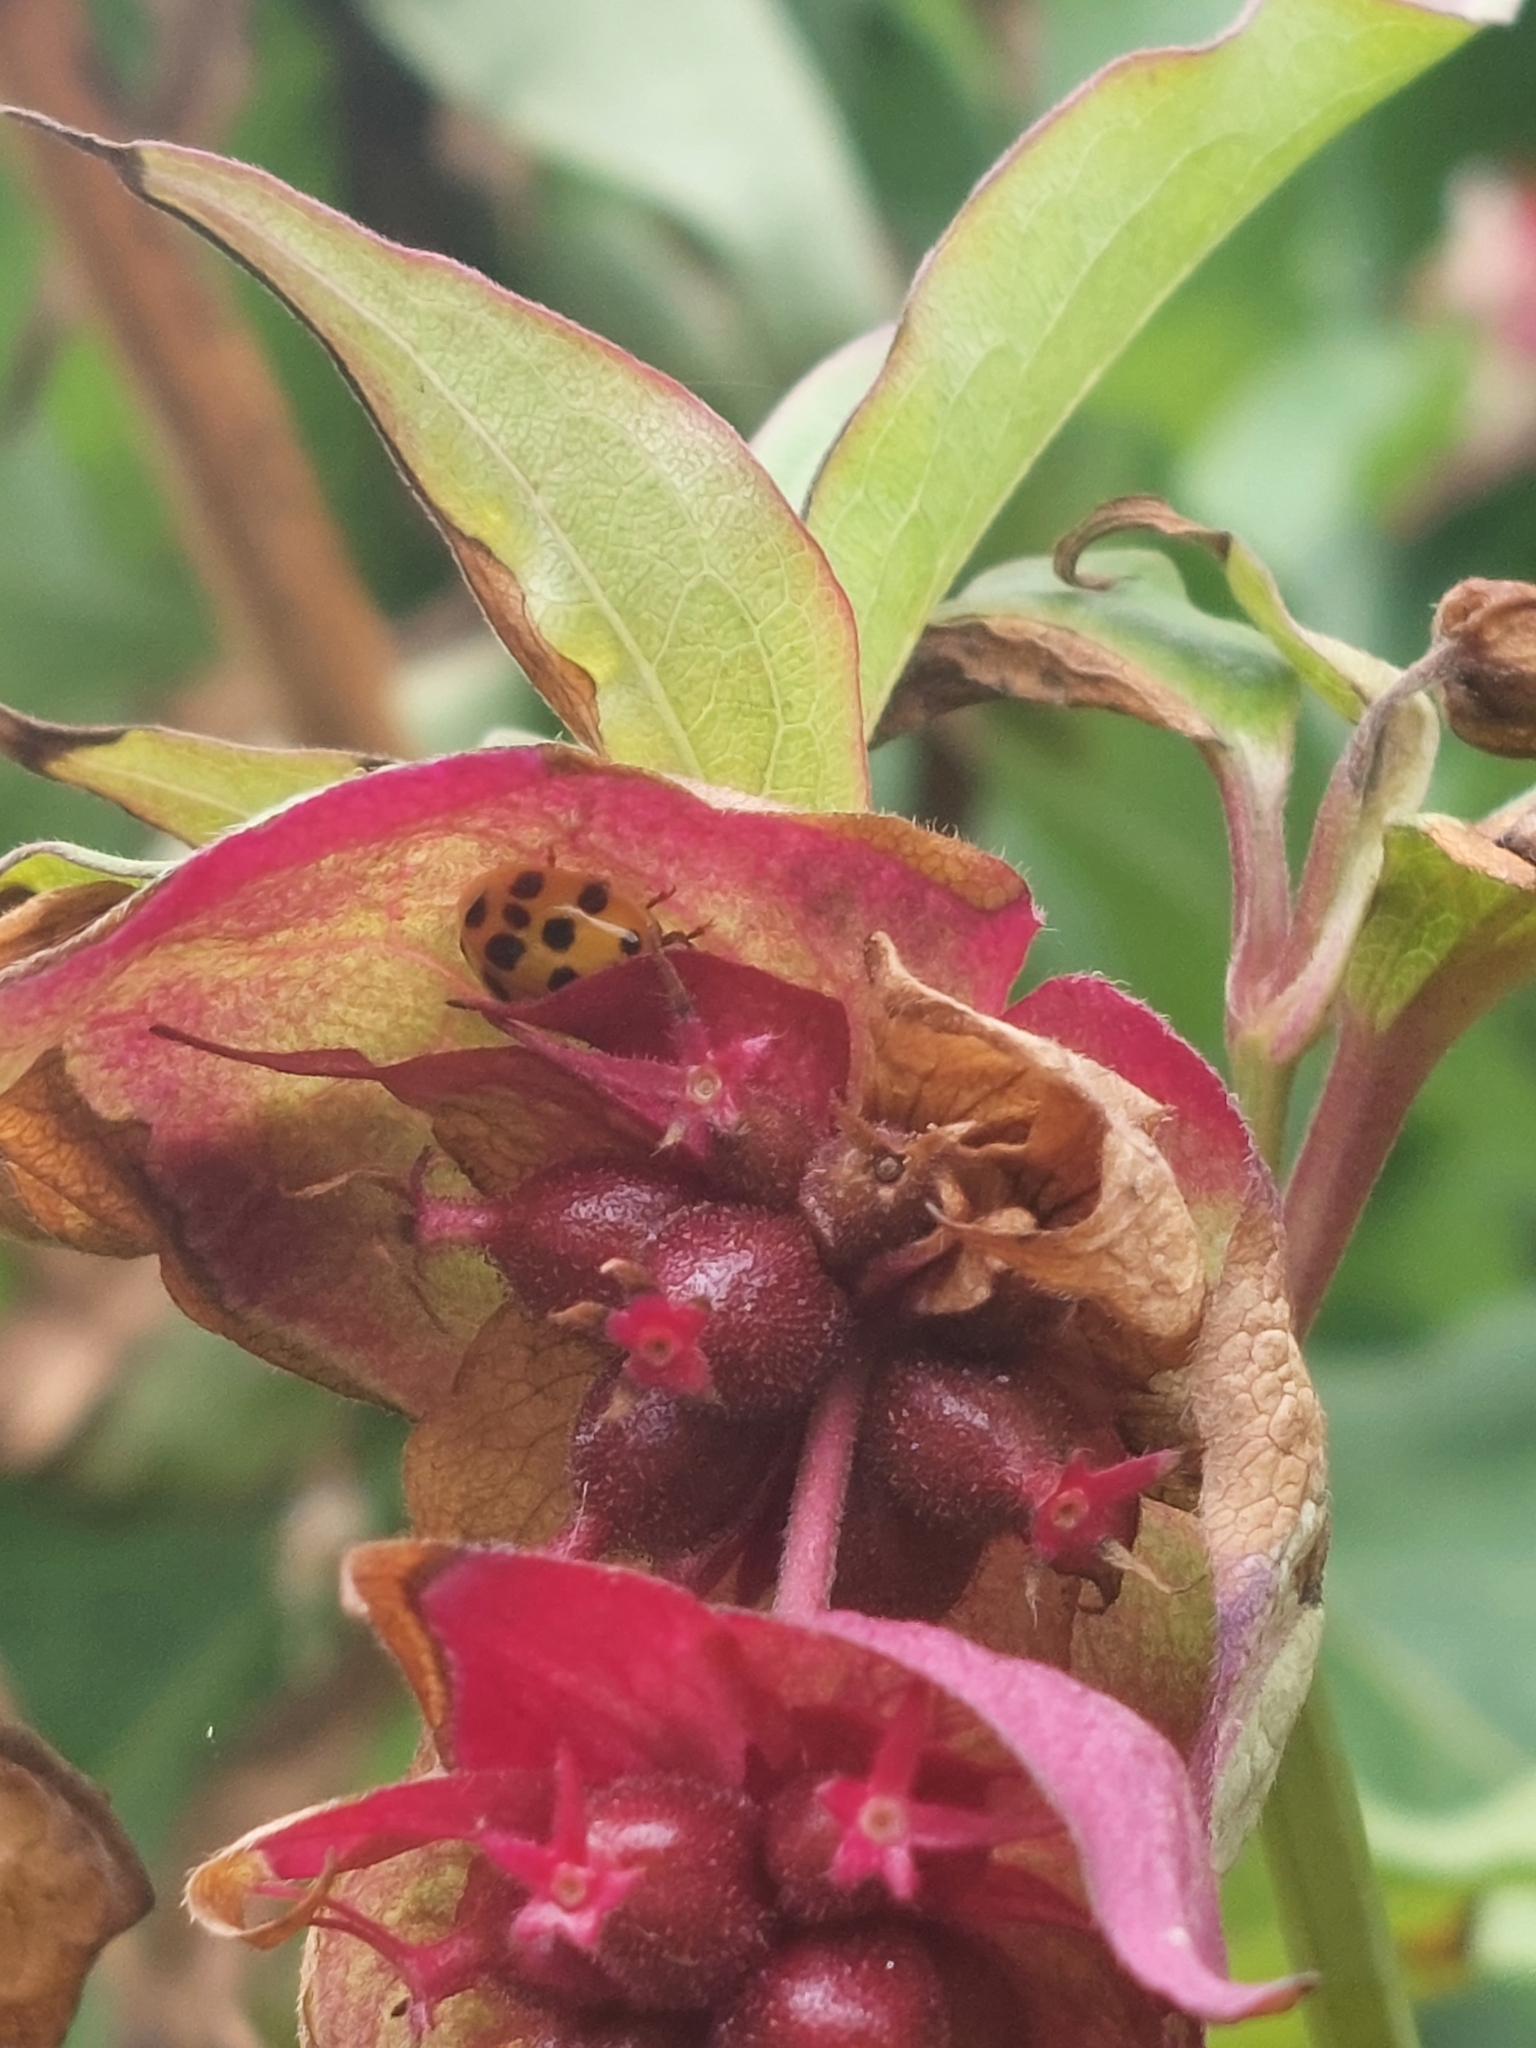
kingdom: Animalia
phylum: Arthropoda
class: Insecta
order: Coleoptera
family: Coccinellidae
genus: Harmonia
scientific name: Harmonia axyridis
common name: Harlequin ladybird
